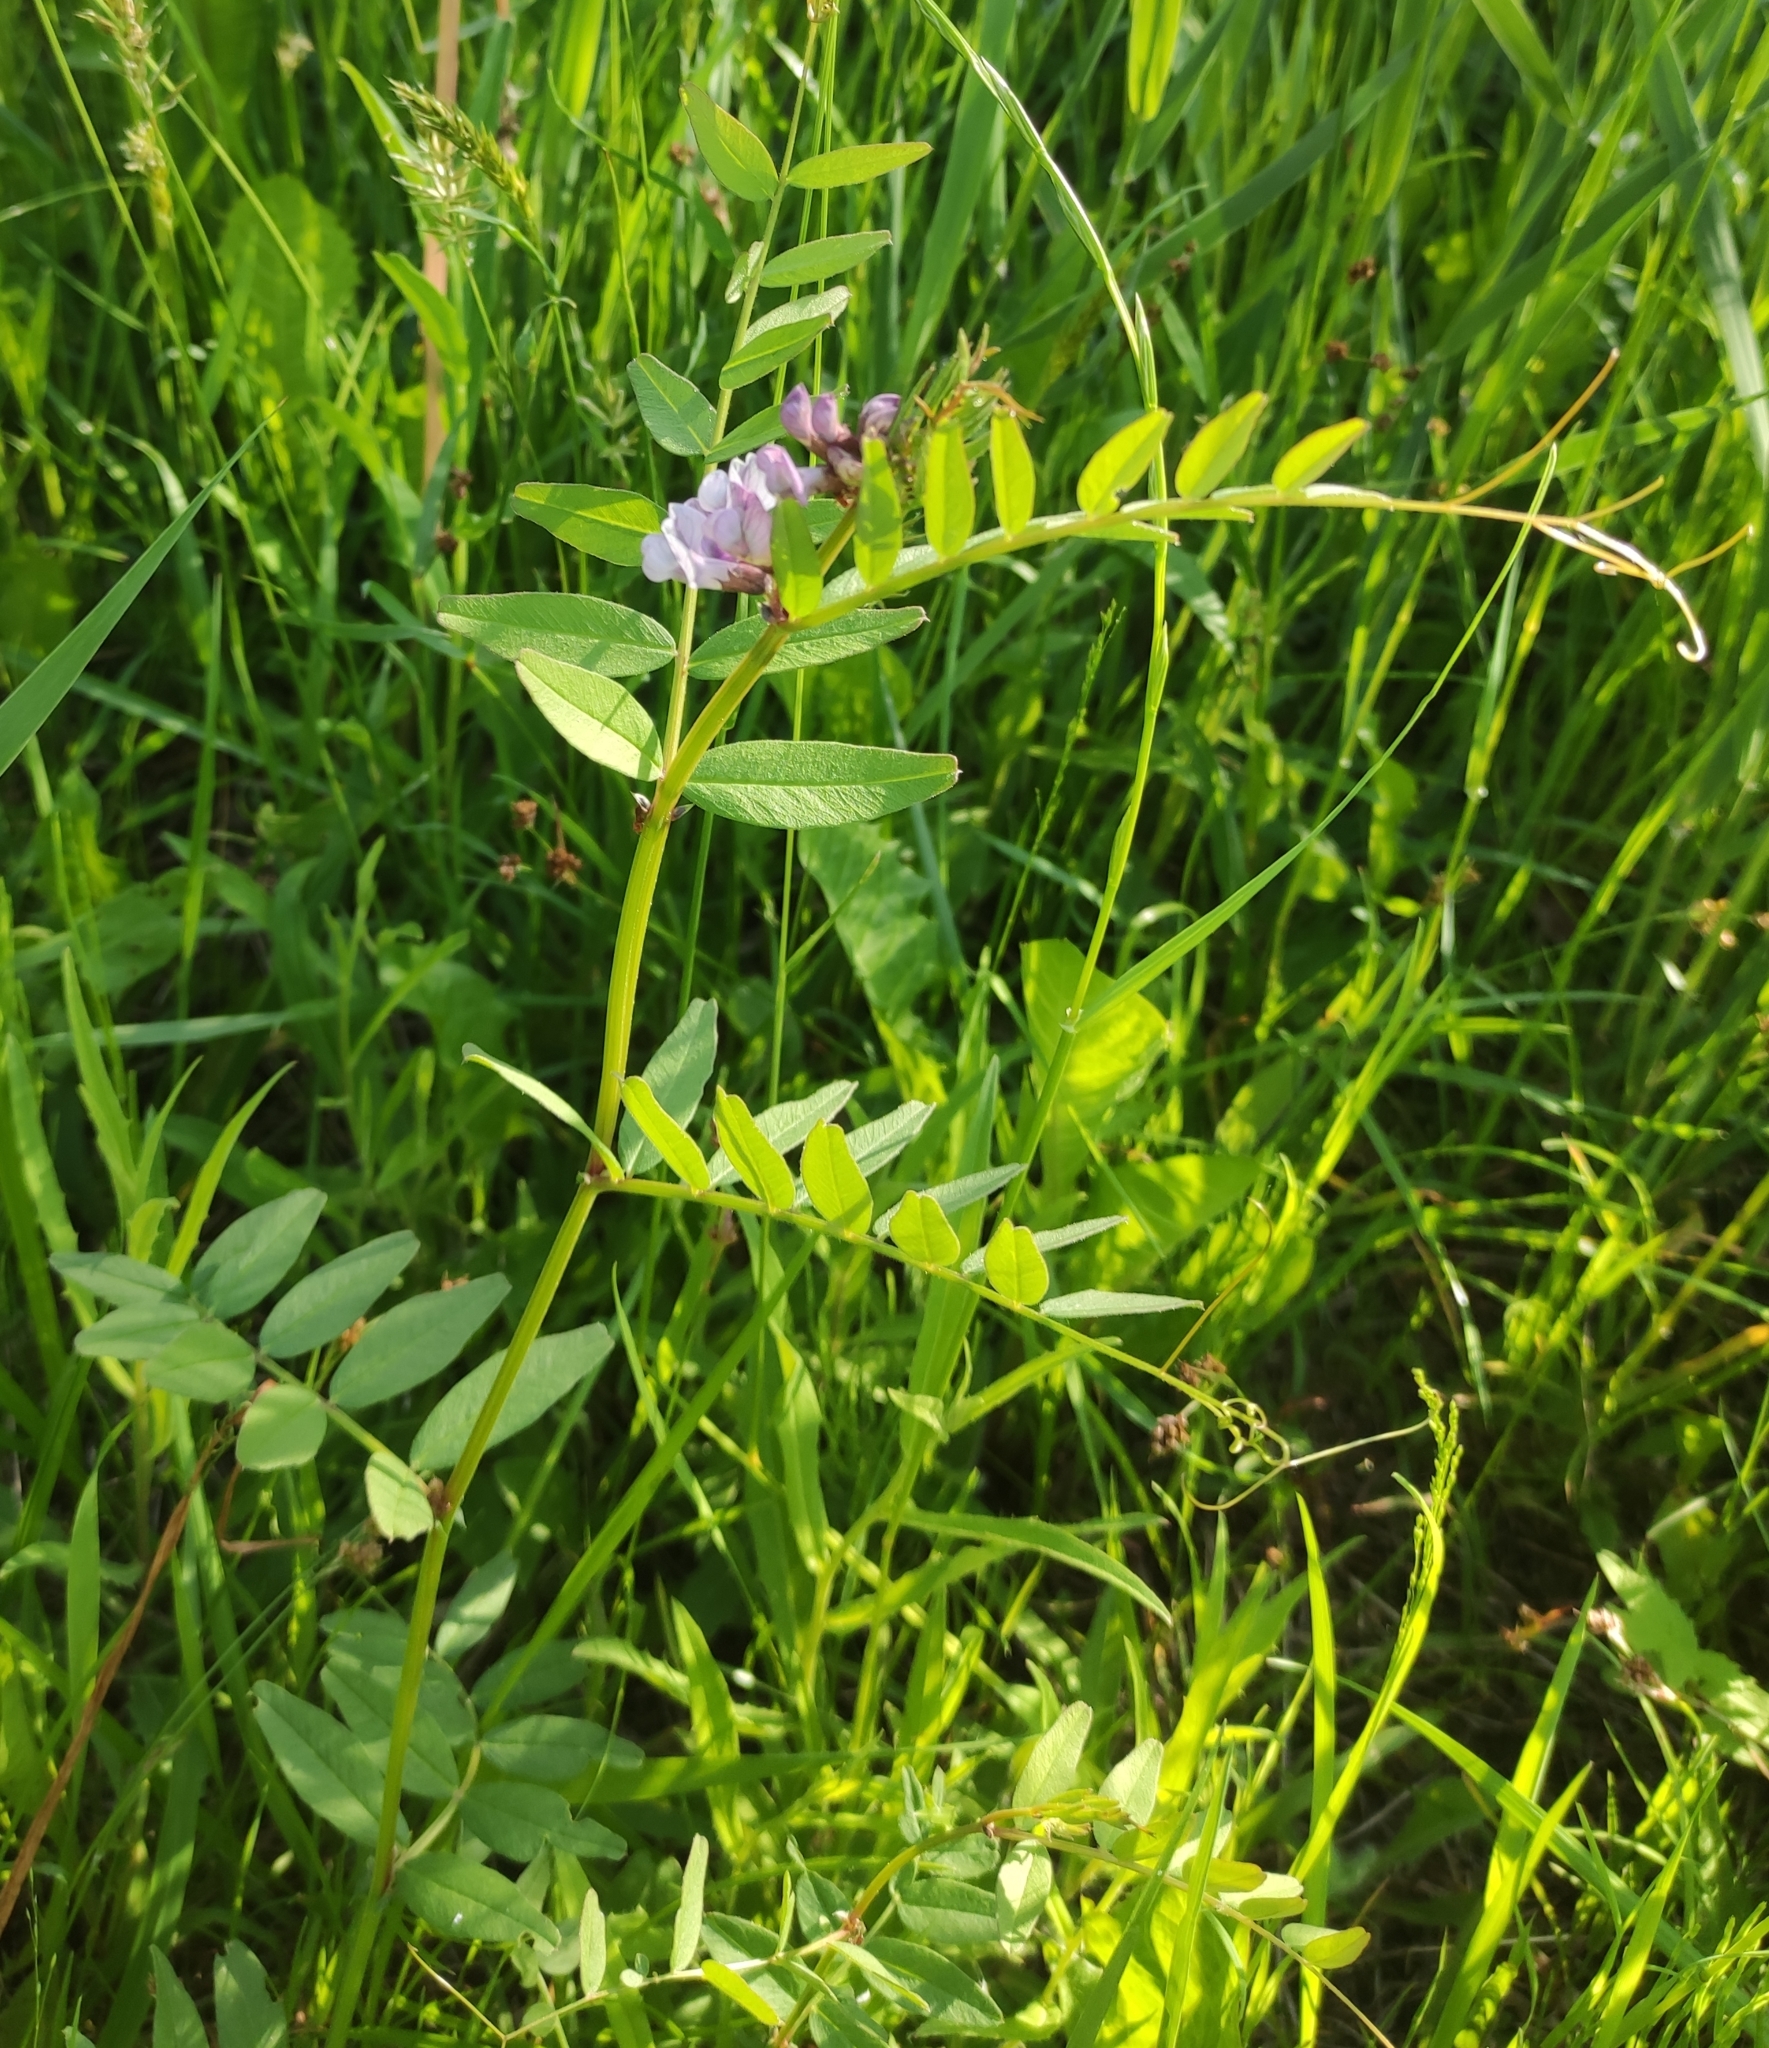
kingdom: Plantae
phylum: Tracheophyta
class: Magnoliopsida
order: Fabales
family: Fabaceae
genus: Vicia
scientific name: Vicia sepium
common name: Bush vetch
